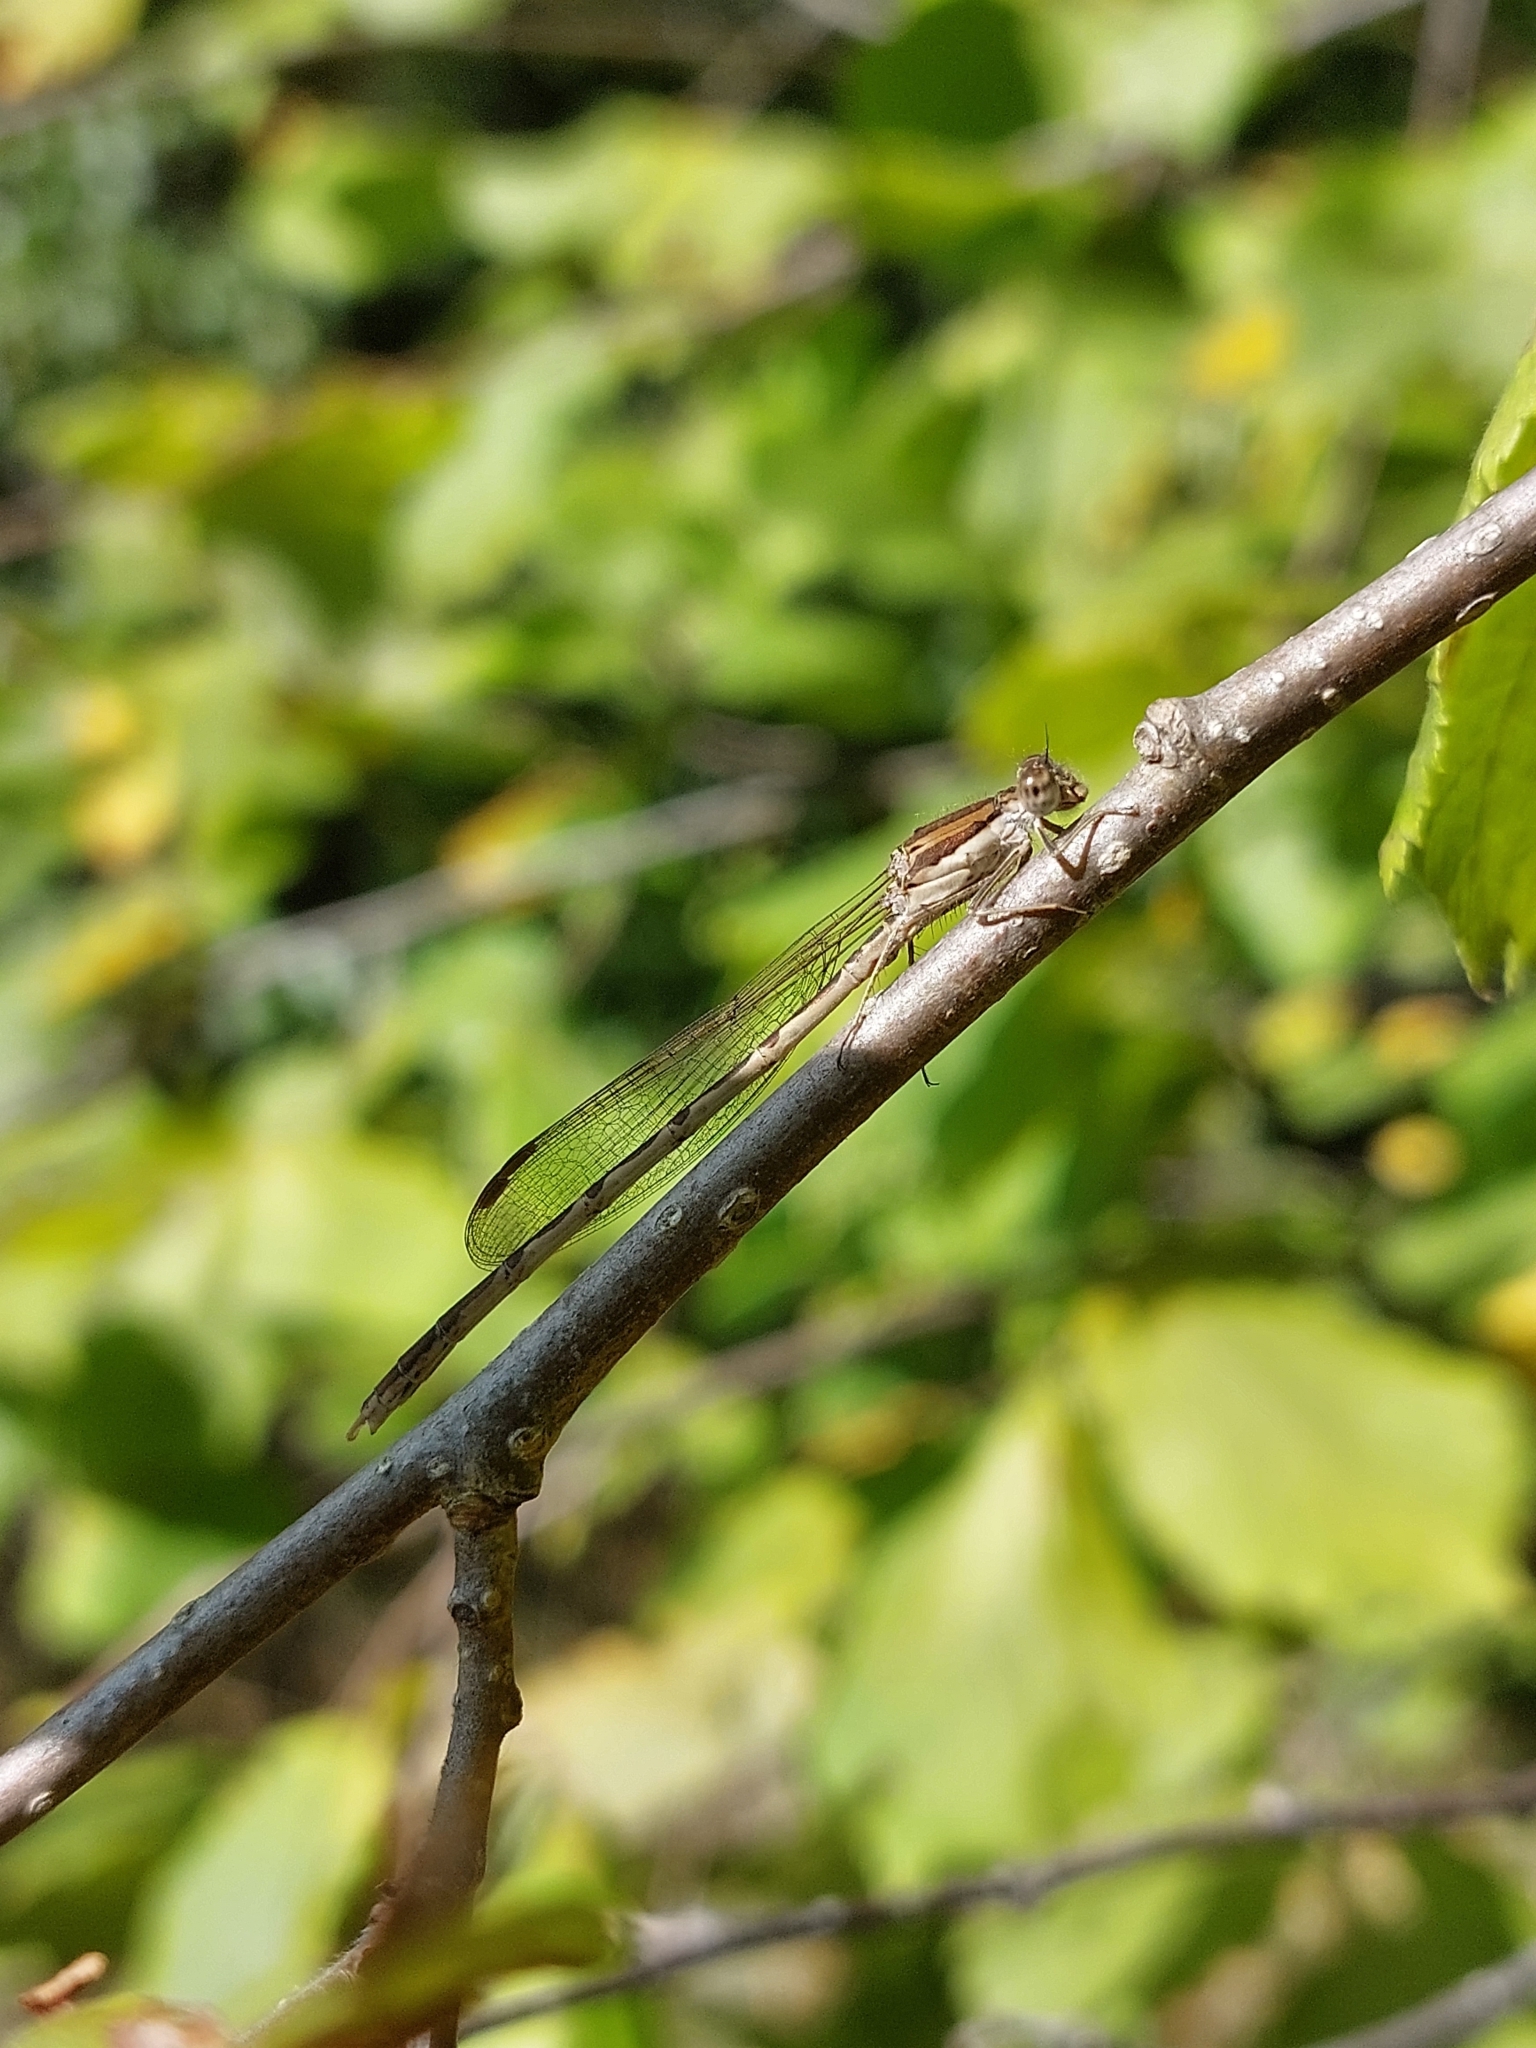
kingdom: Animalia
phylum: Arthropoda
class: Insecta
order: Odonata
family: Lestidae
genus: Sympecma
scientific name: Sympecma fusca
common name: Common winter damsel
